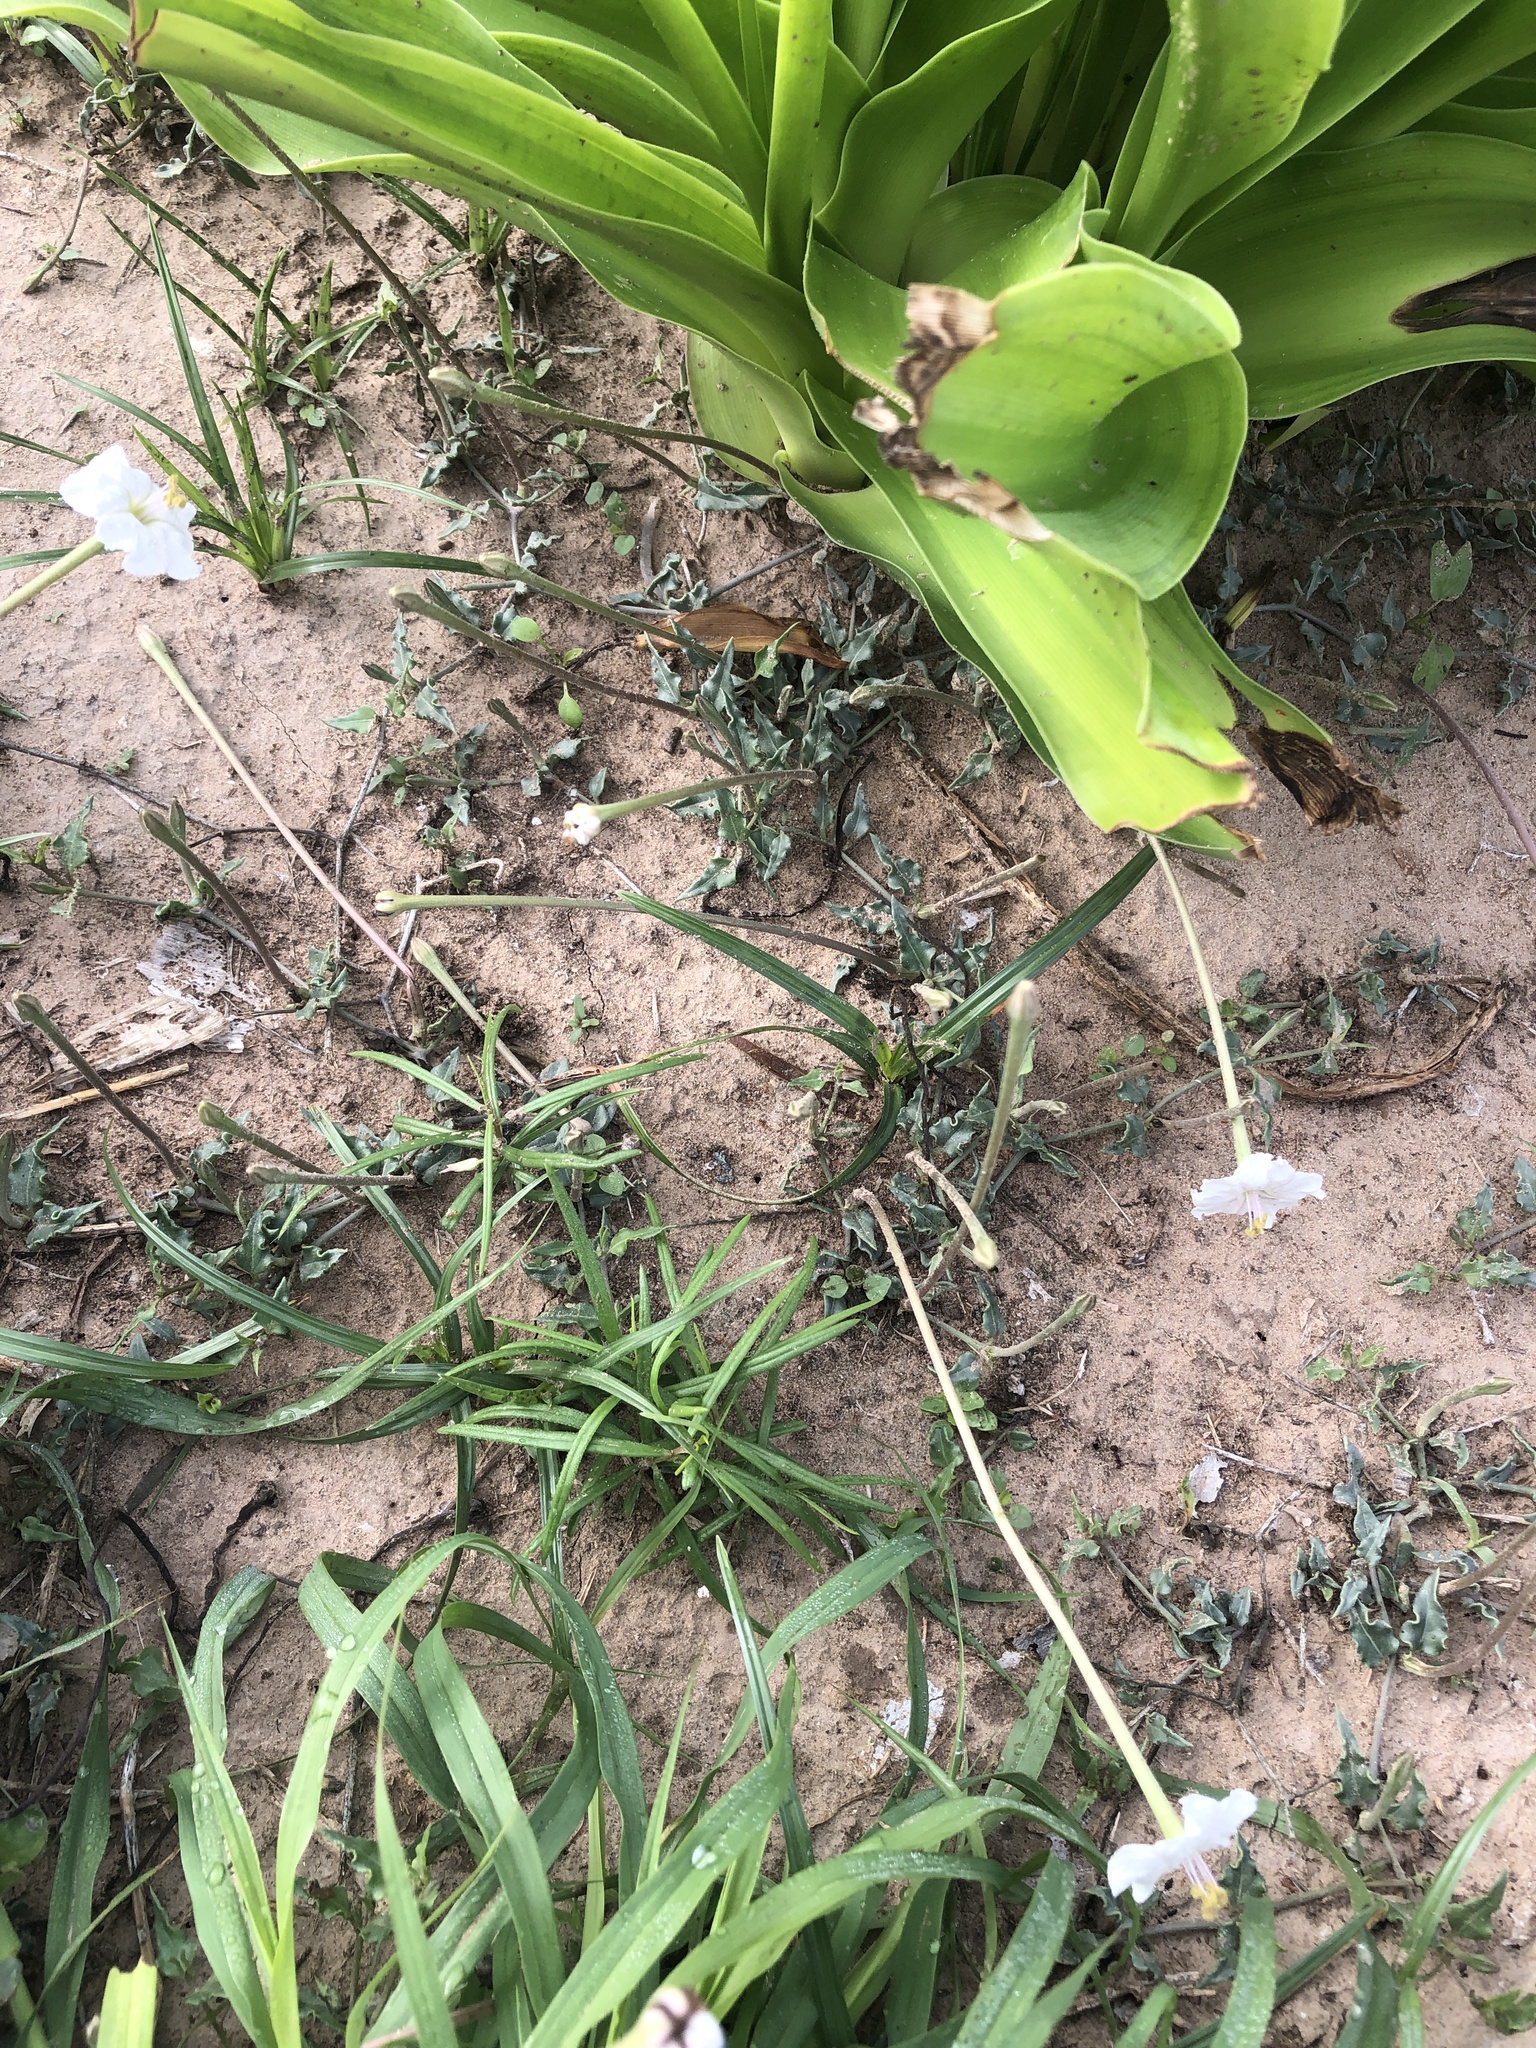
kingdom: Plantae
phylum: Tracheophyta
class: Magnoliopsida
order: Caryophyllales
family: Nyctaginaceae
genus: Acleisanthes
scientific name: Acleisanthes longiflora
